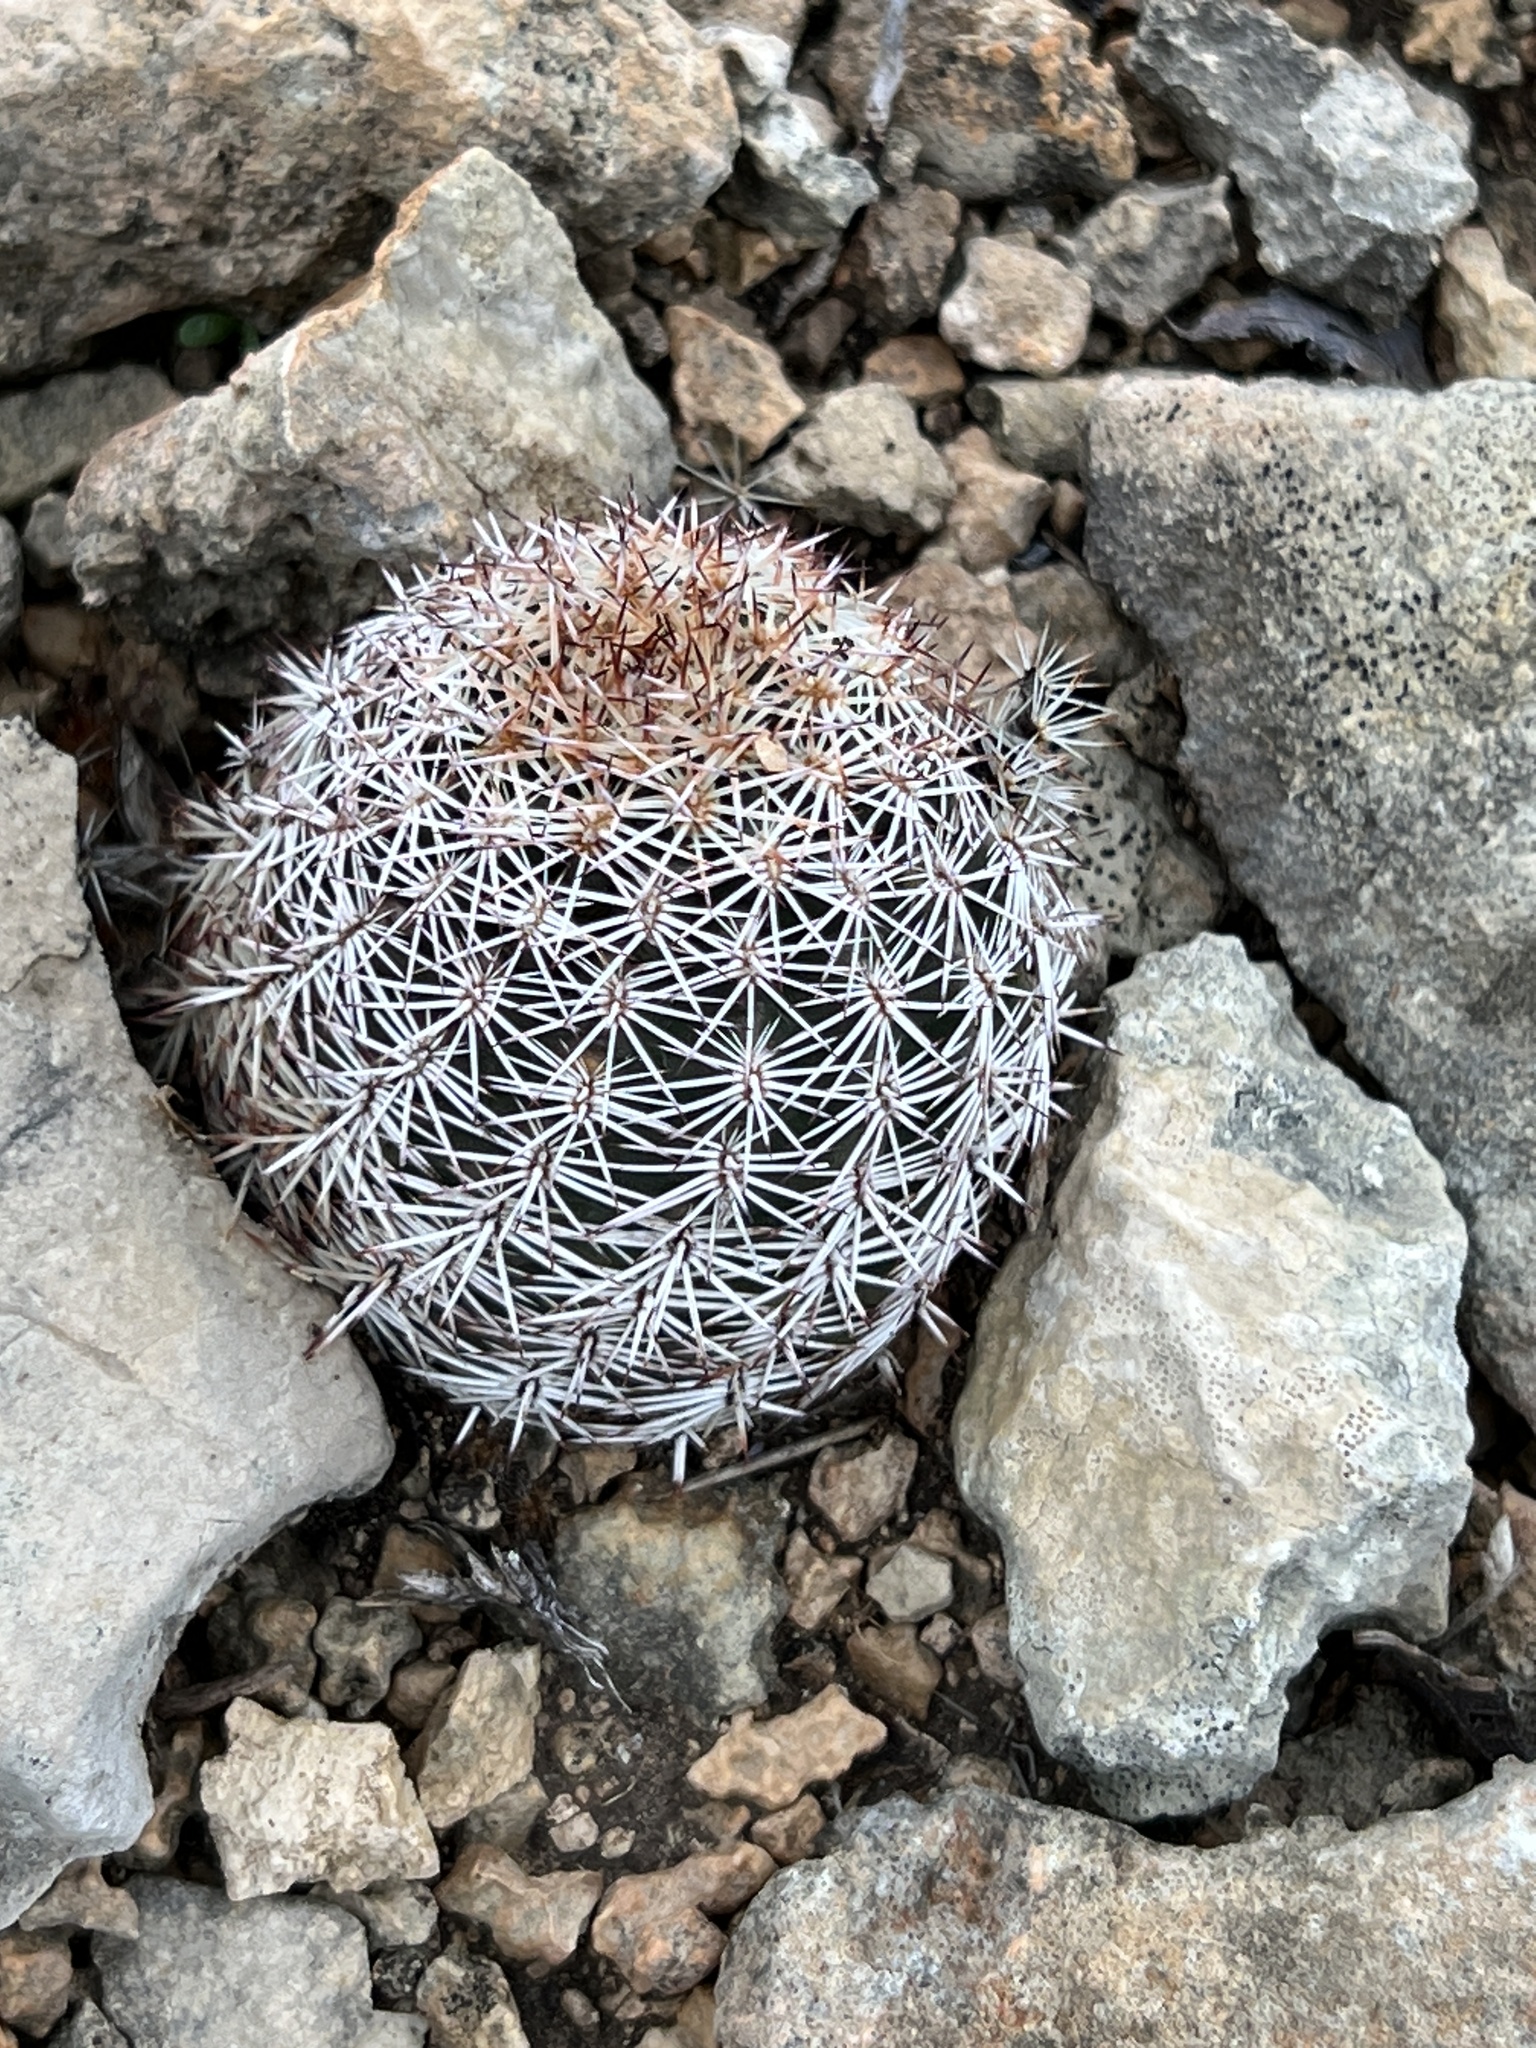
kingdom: Plantae
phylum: Tracheophyta
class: Magnoliopsida
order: Caryophyllales
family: Cactaceae
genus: Echinocereus
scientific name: Echinocereus pectinatus
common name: Rainbow cactus
